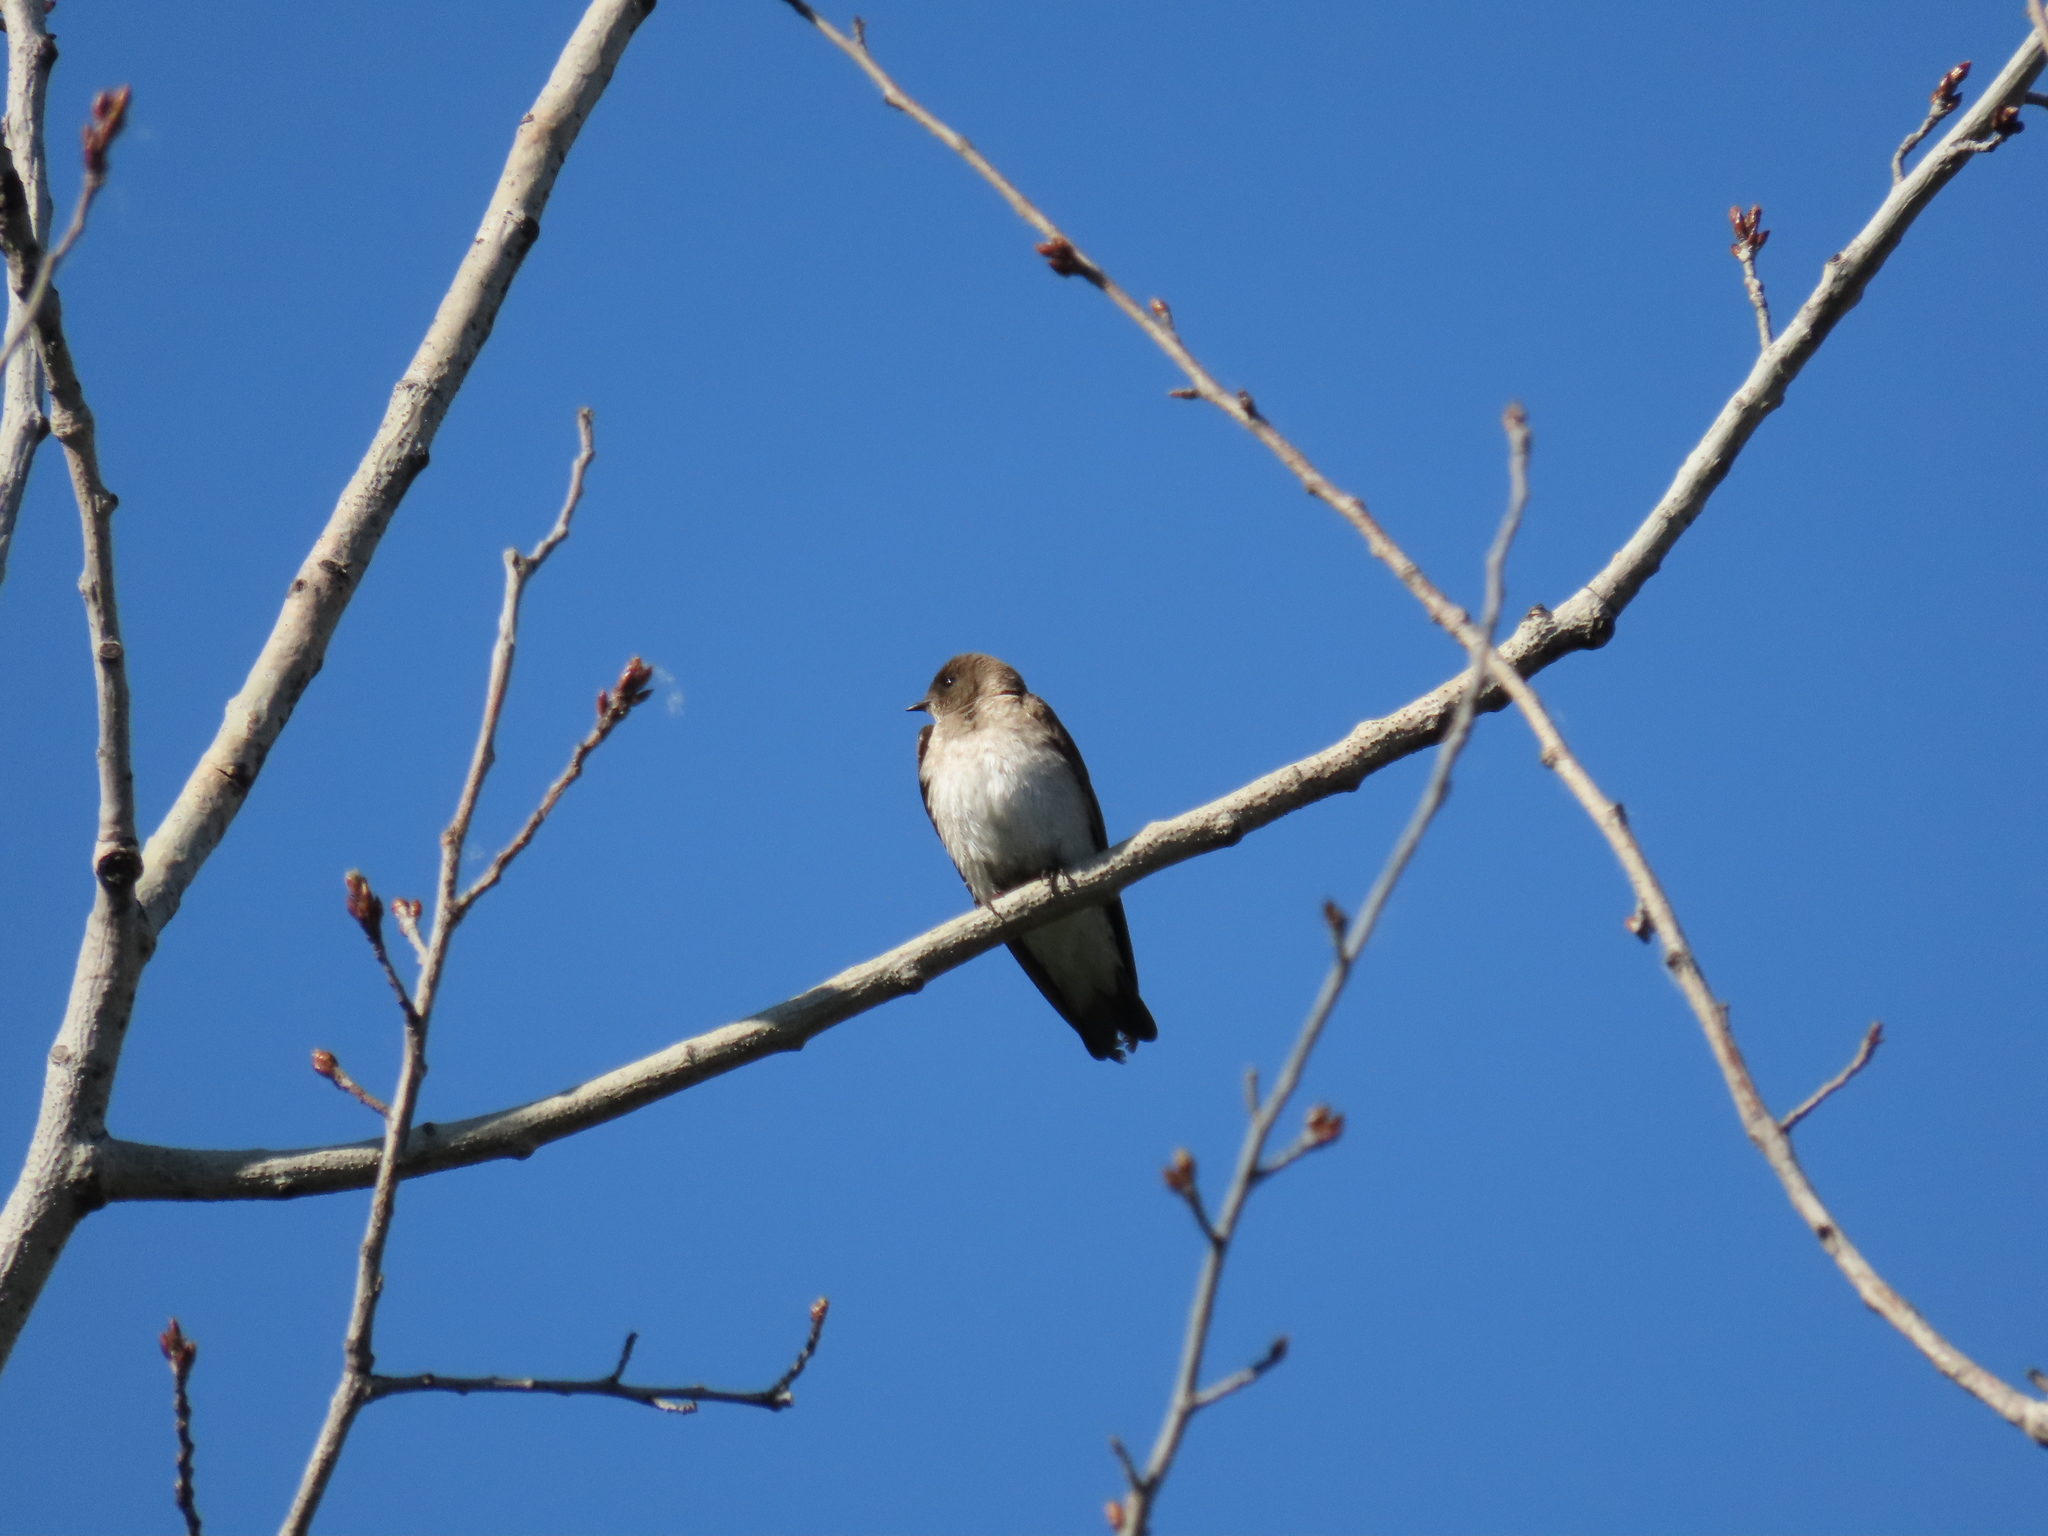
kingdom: Animalia
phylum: Chordata
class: Aves
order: Passeriformes
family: Hirundinidae
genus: Stelgidopteryx
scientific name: Stelgidopteryx serripennis
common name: Northern rough-winged swallow
